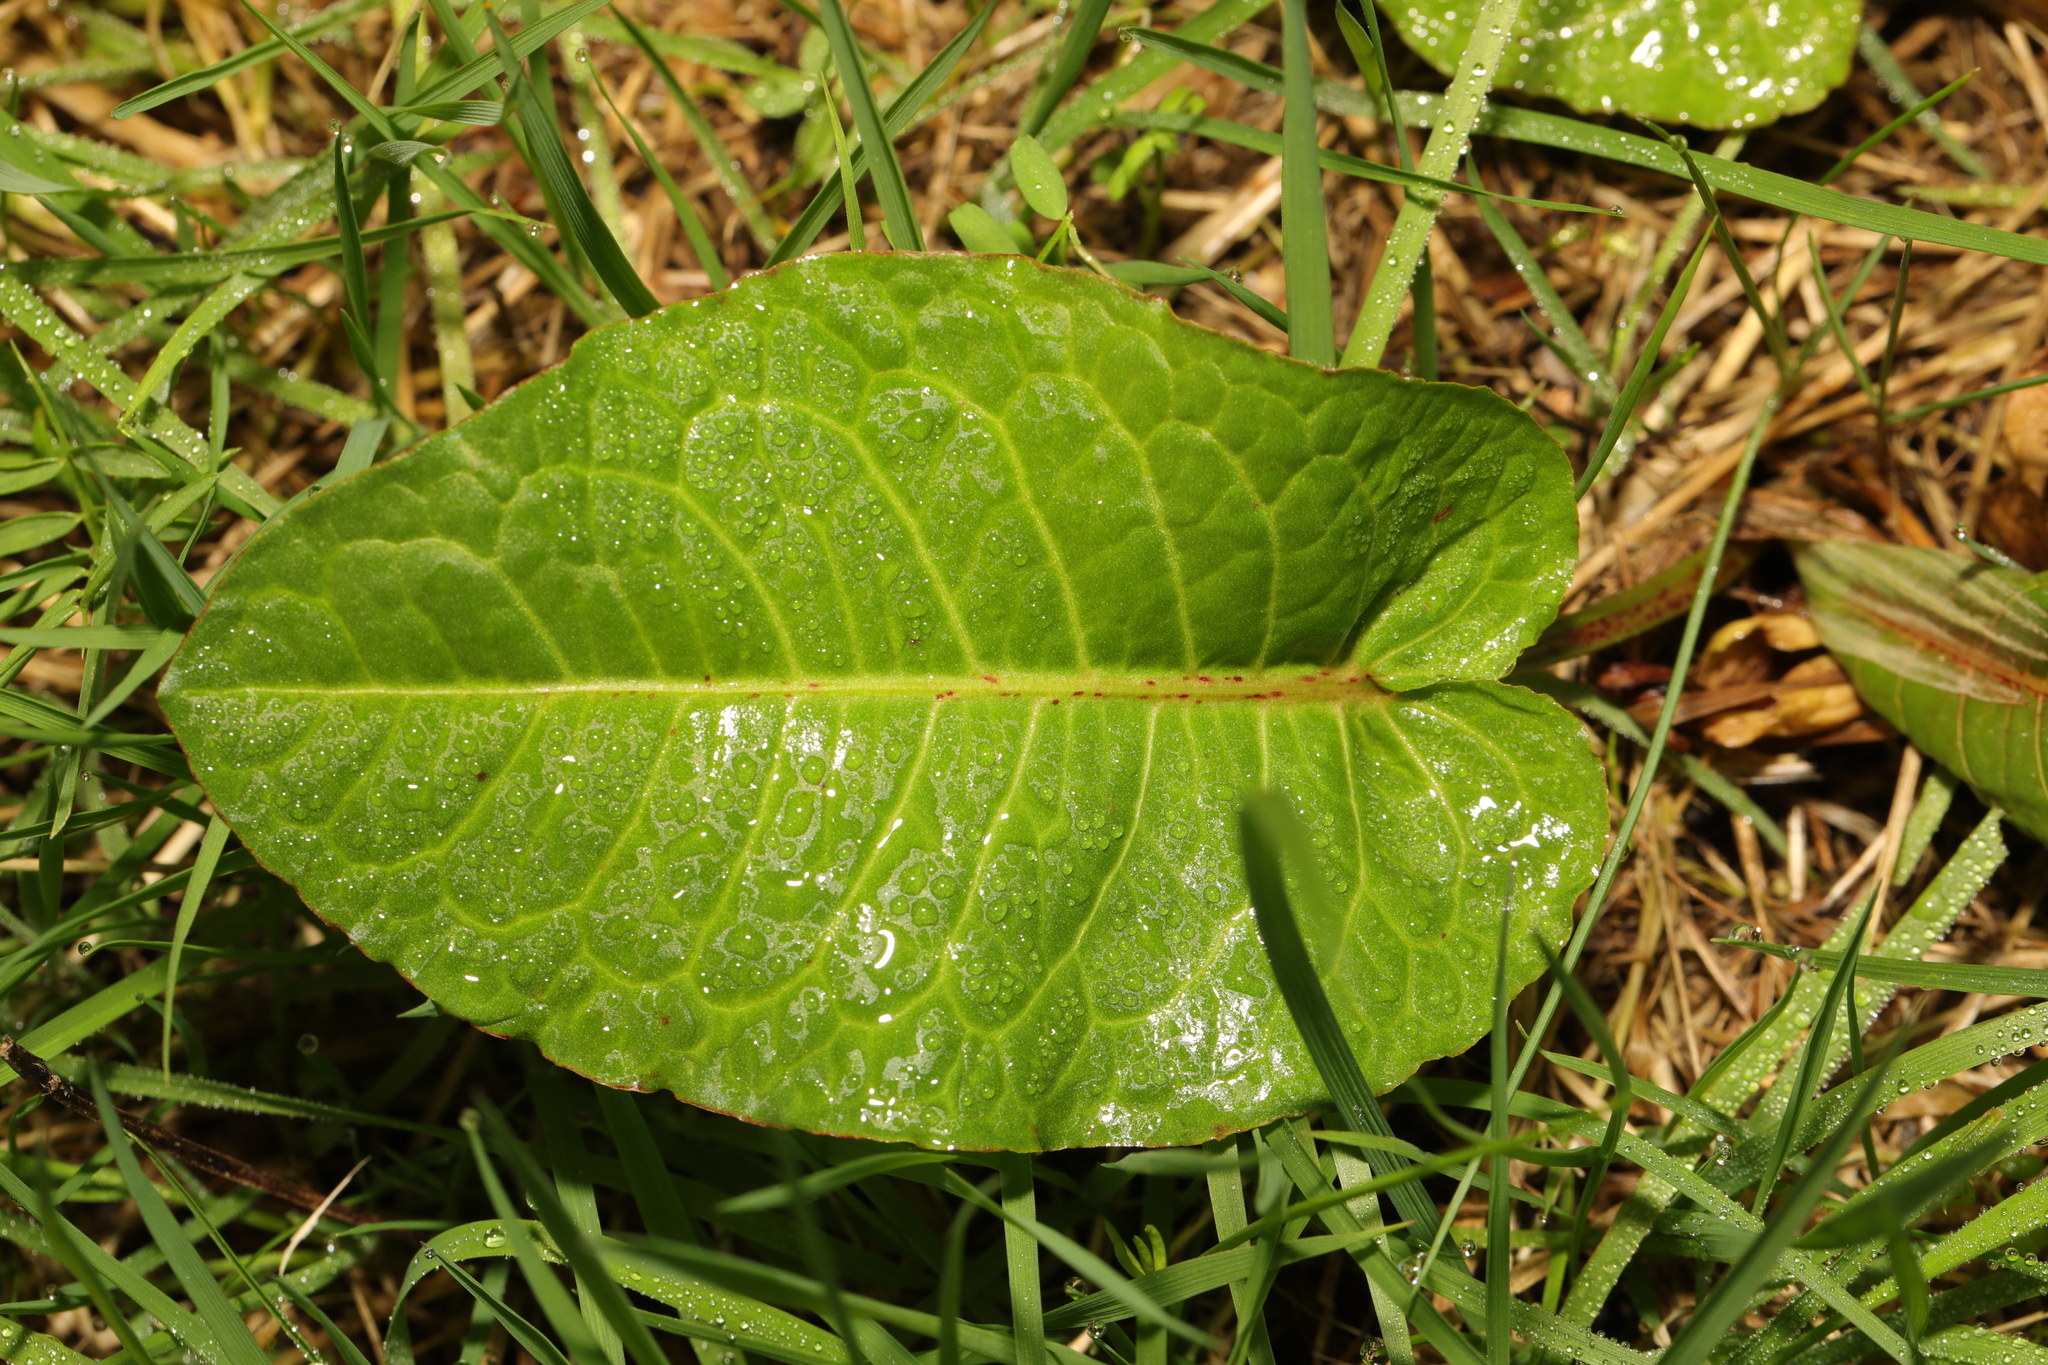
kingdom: Plantae
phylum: Tracheophyta
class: Magnoliopsida
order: Caryophyllales
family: Polygonaceae
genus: Rumex
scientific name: Rumex obtusifolius
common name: Bitter dock
